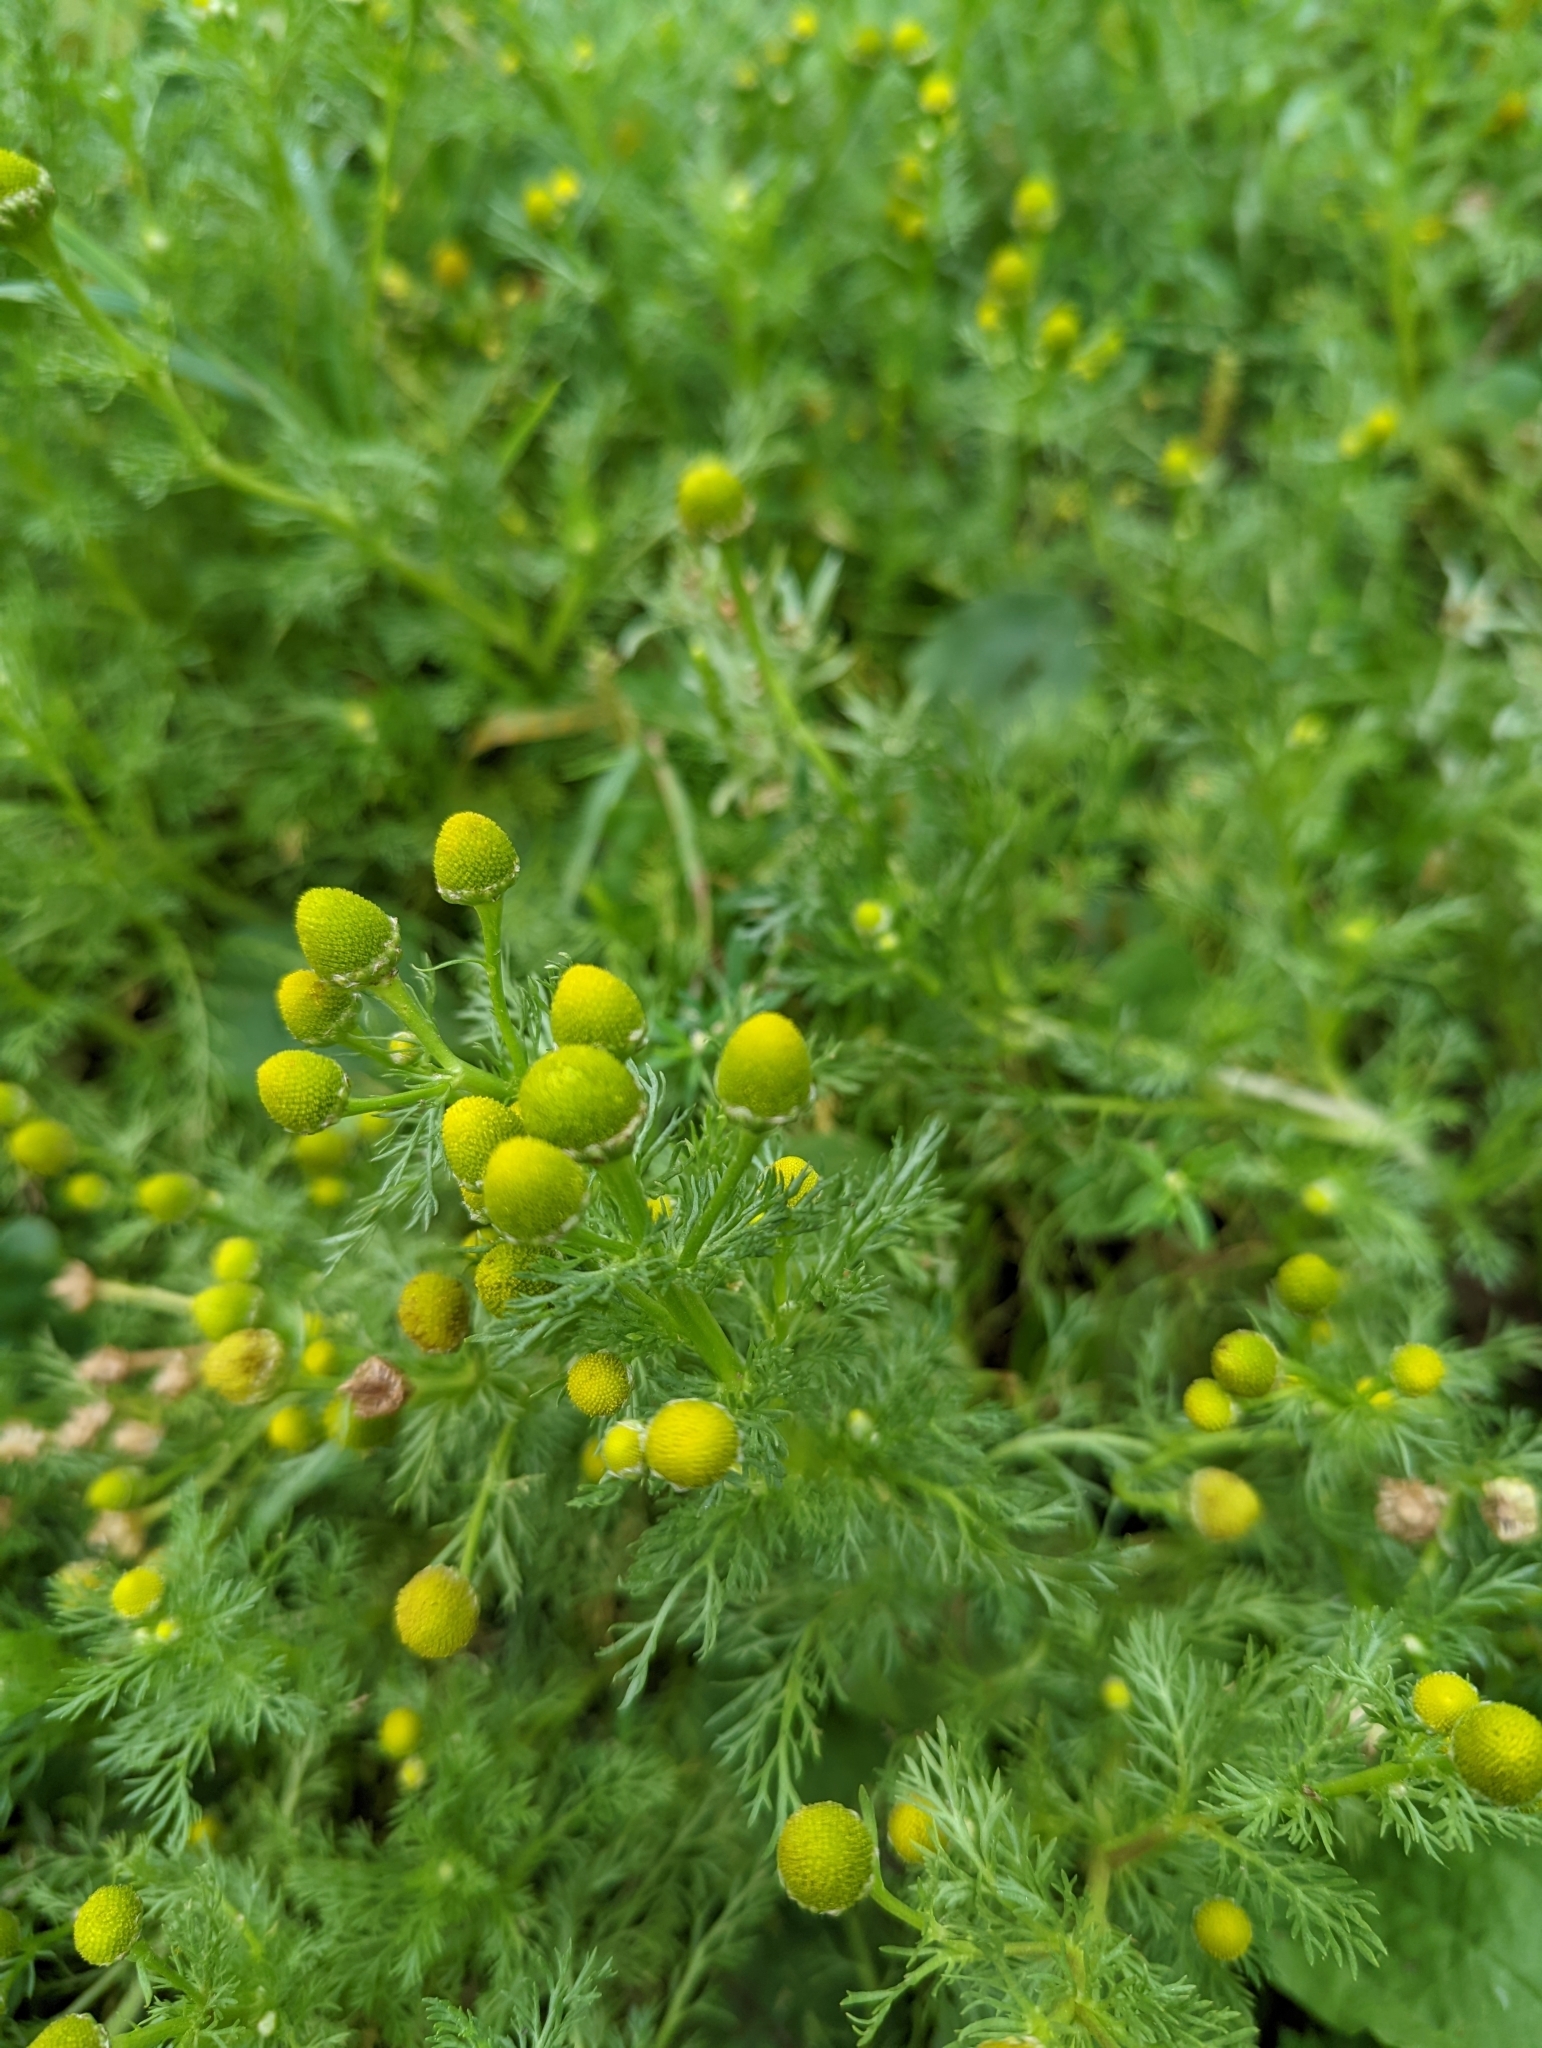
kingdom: Plantae
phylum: Tracheophyta
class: Magnoliopsida
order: Asterales
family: Asteraceae
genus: Matricaria
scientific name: Matricaria discoidea
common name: Disc mayweed
